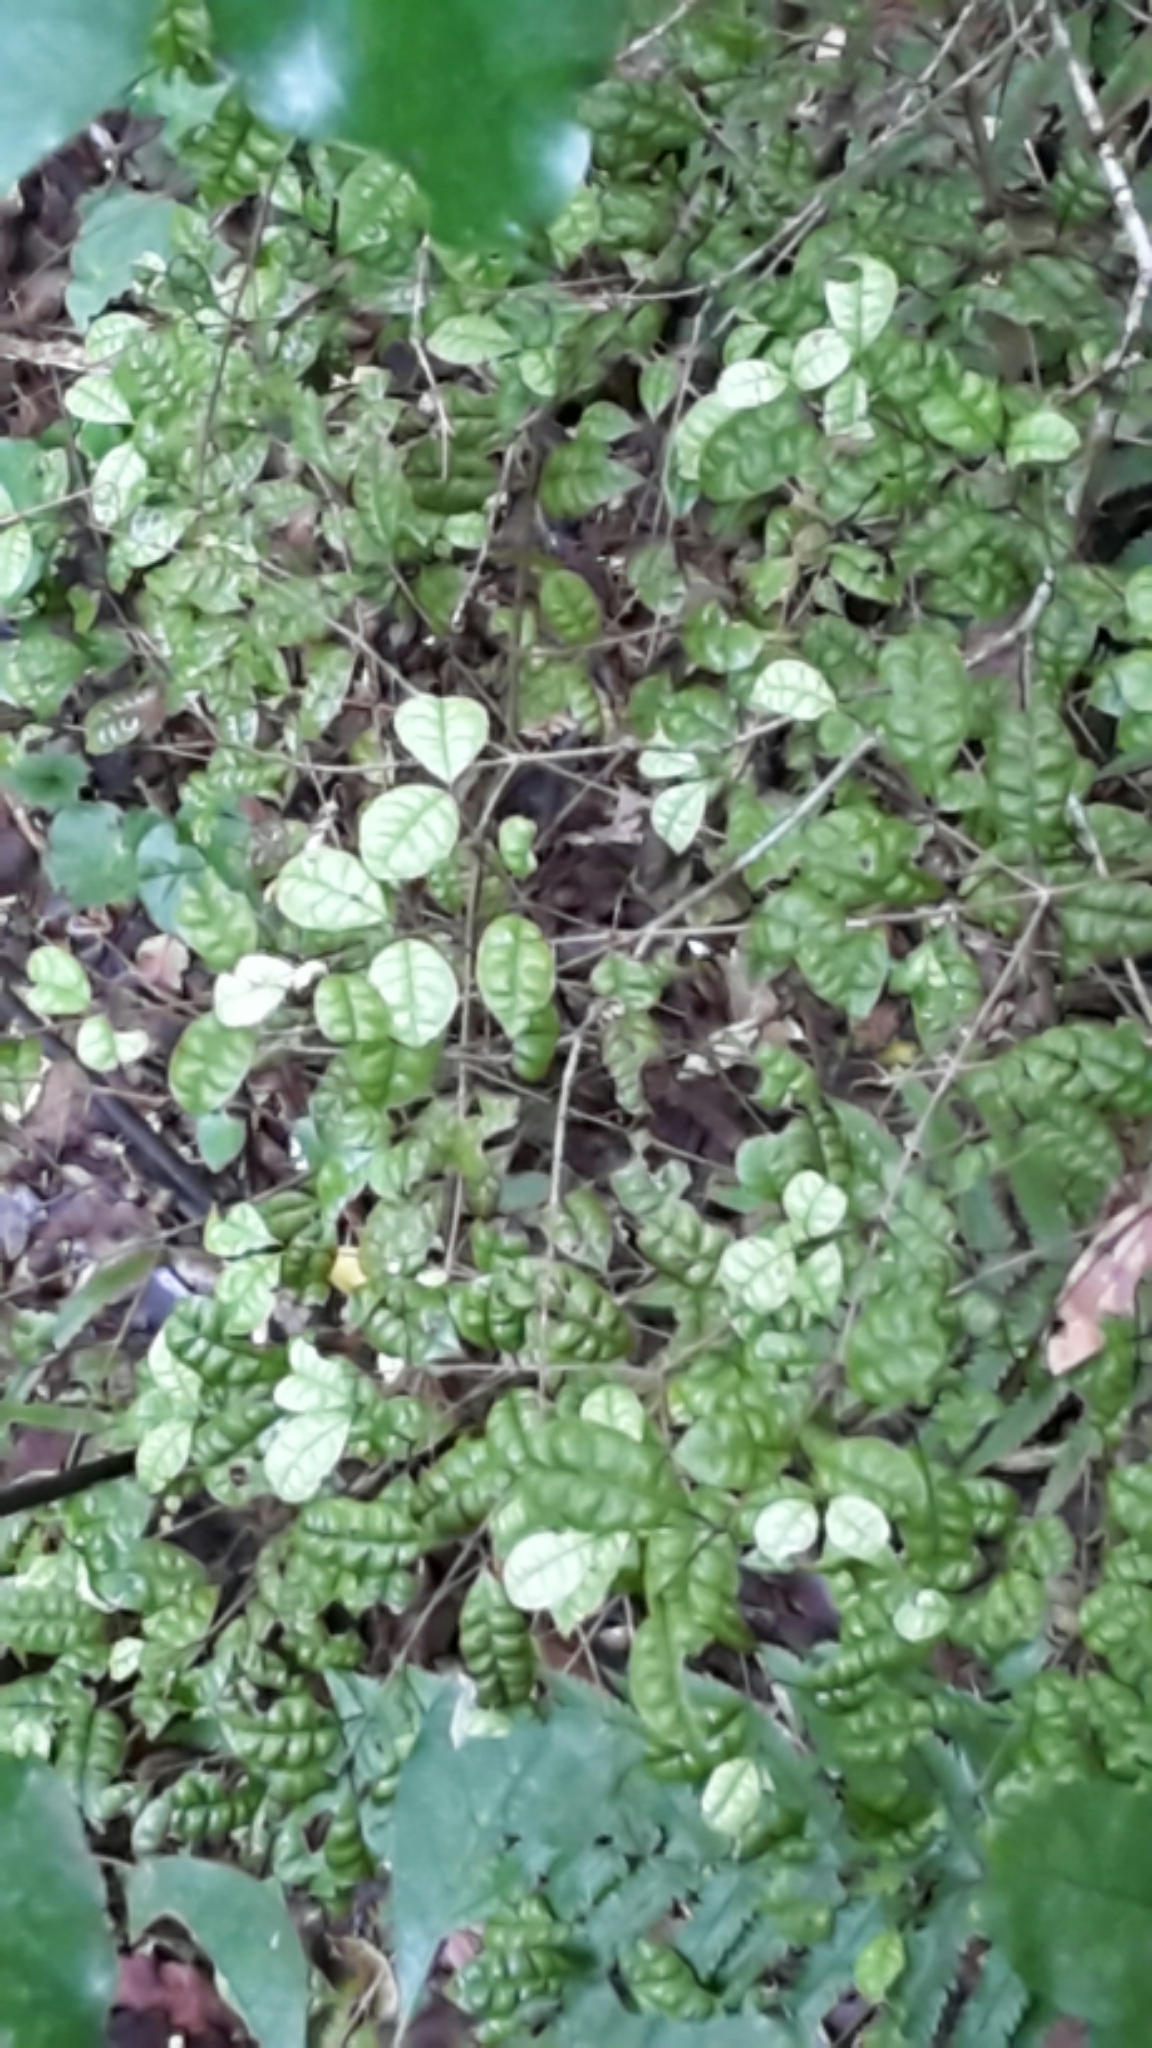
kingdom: Plantae
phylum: Tracheophyta
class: Magnoliopsida
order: Myrtales
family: Myrtaceae
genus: Lophomyrtus
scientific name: Lophomyrtus bullata
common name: Rama rama
